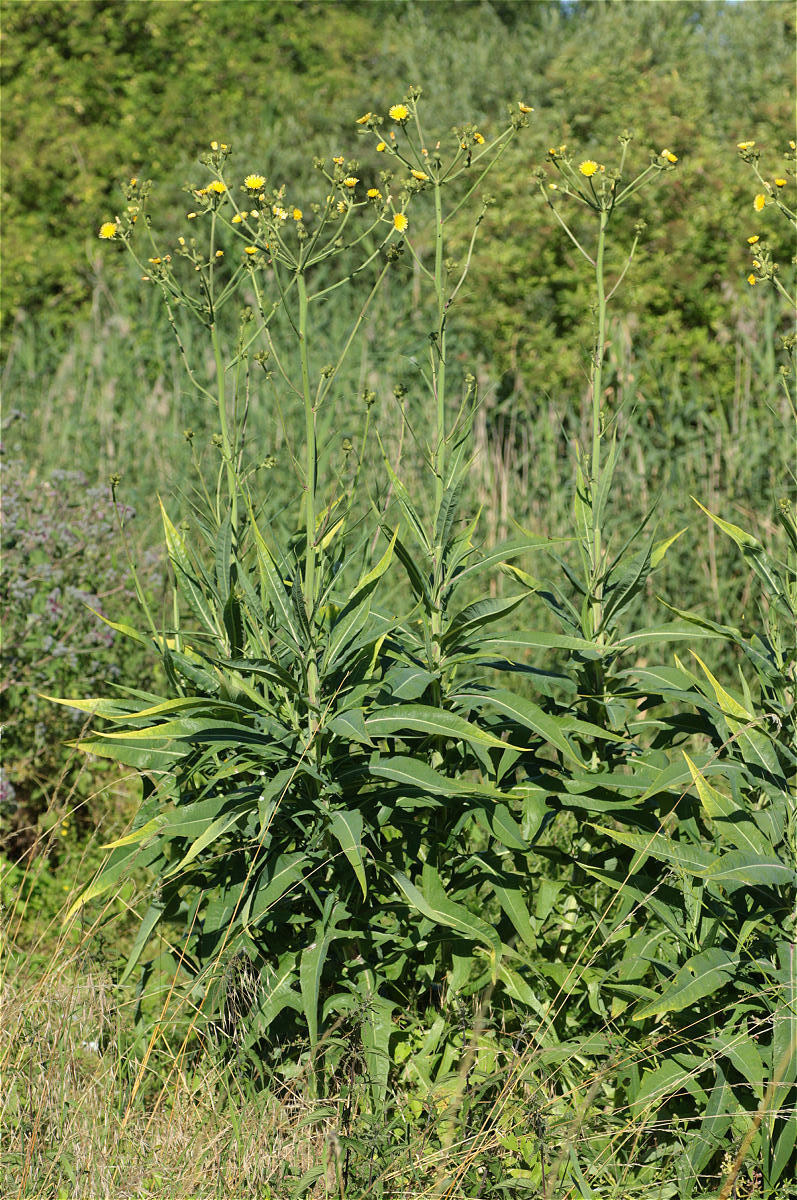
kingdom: Plantae
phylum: Tracheophyta
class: Magnoliopsida
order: Asterales
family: Asteraceae
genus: Sonchus
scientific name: Sonchus palustris
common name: Marsh sow-thistle
